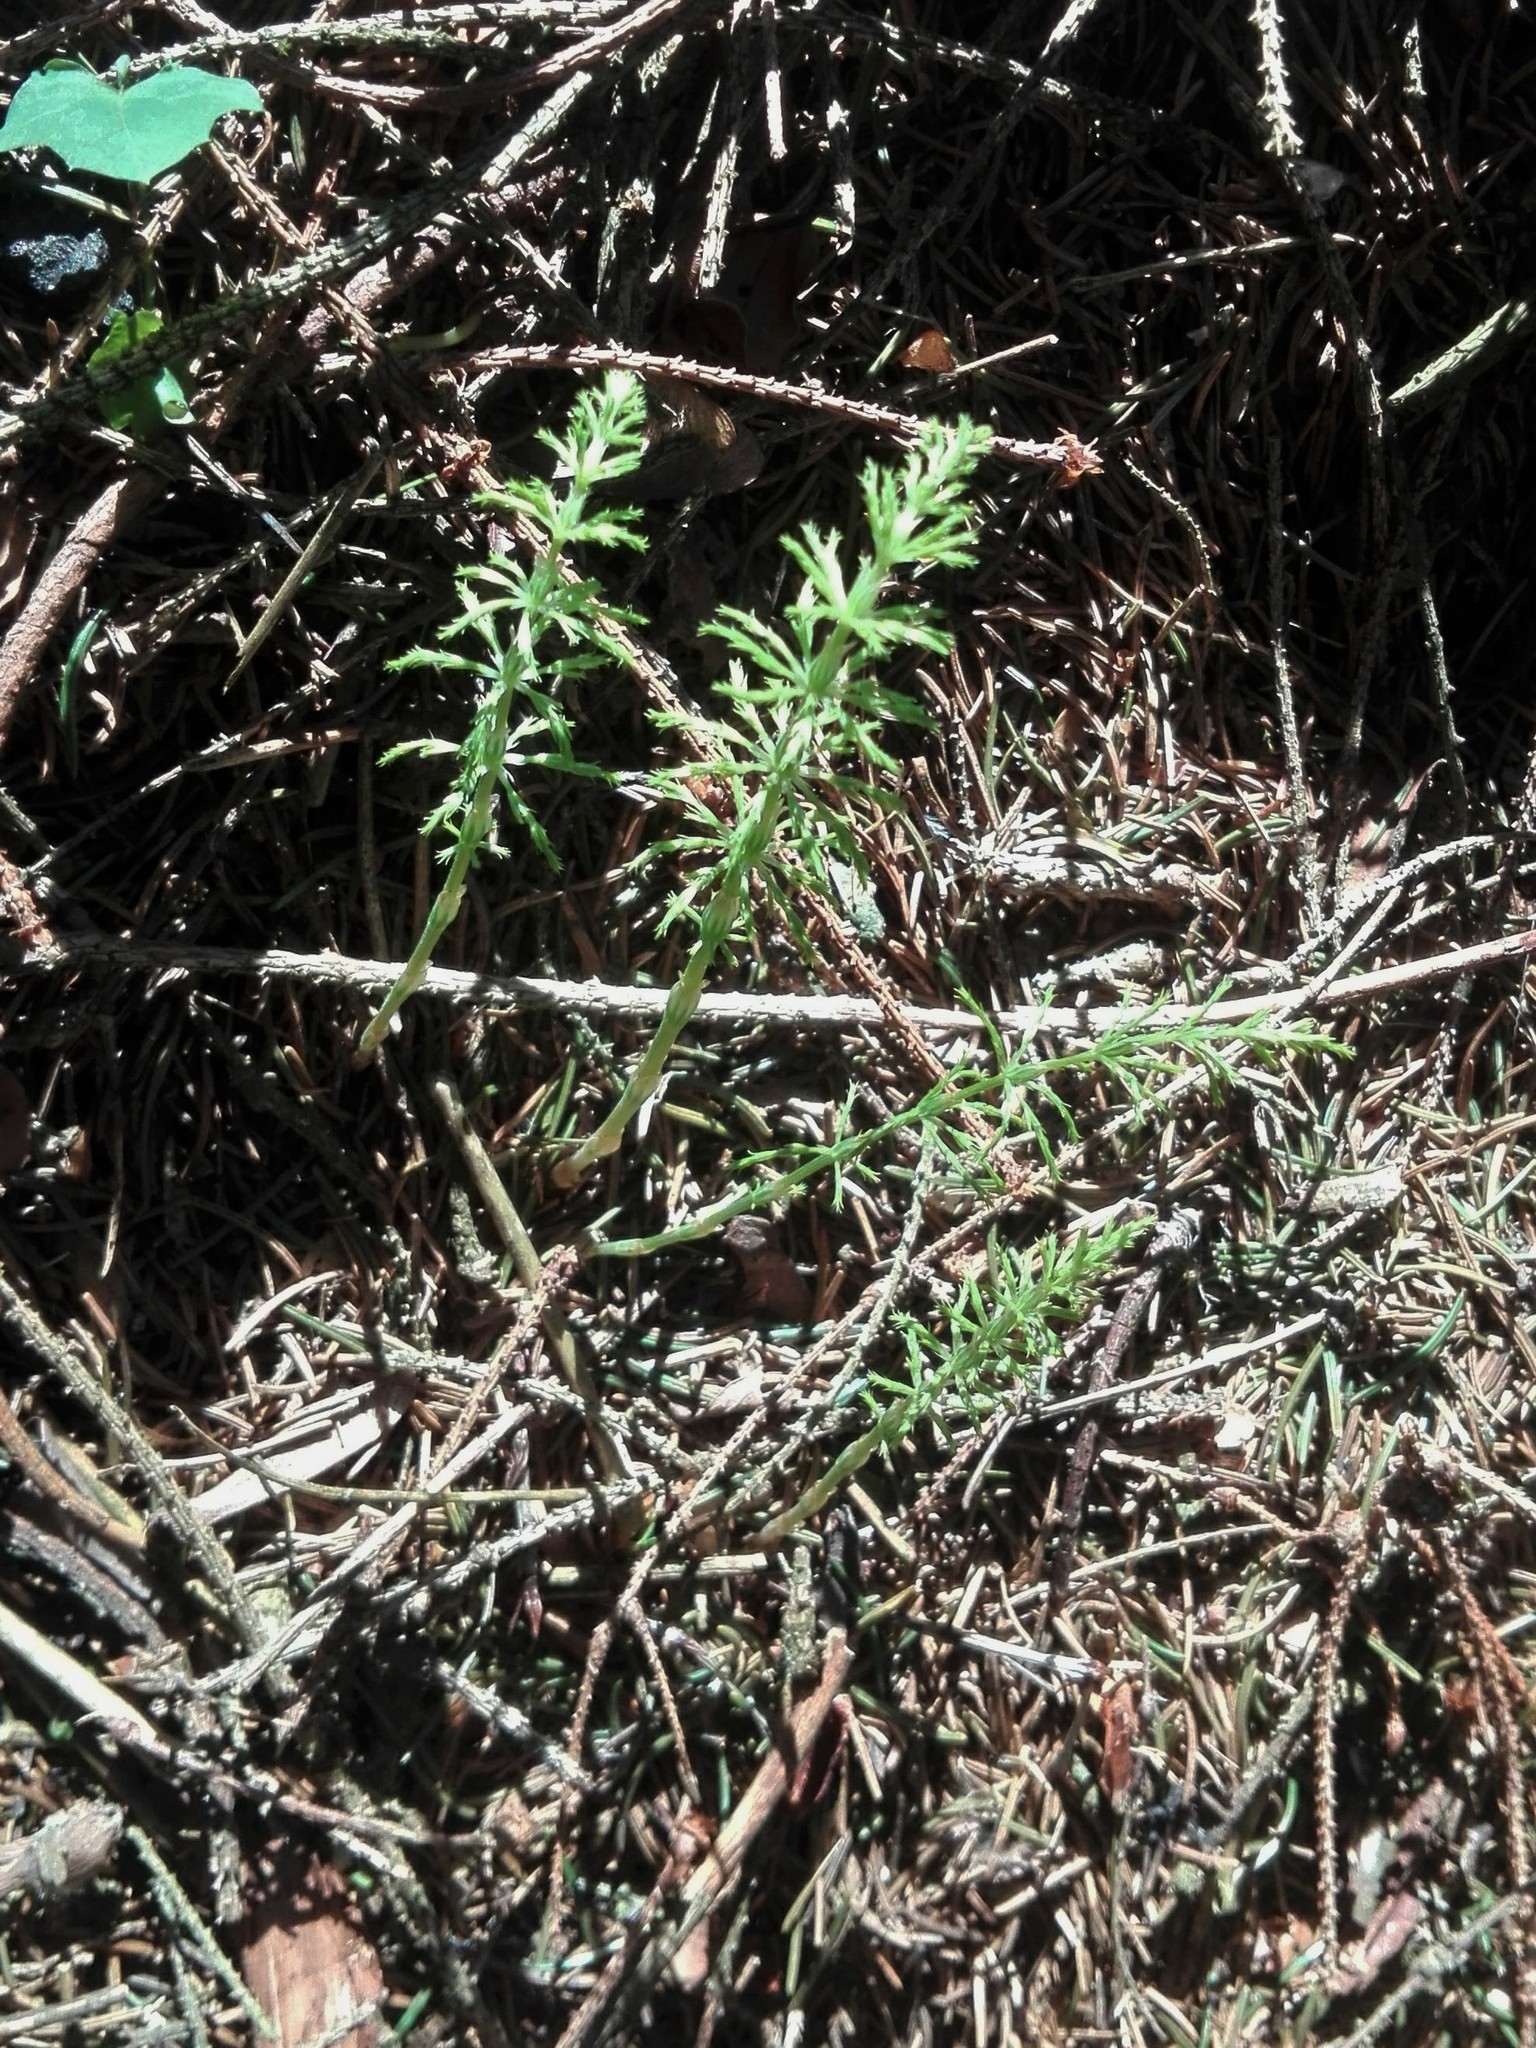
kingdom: Plantae
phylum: Tracheophyta
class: Polypodiopsida
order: Equisetales
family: Equisetaceae
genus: Equisetum
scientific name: Equisetum sylvaticum
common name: Wood horsetail
